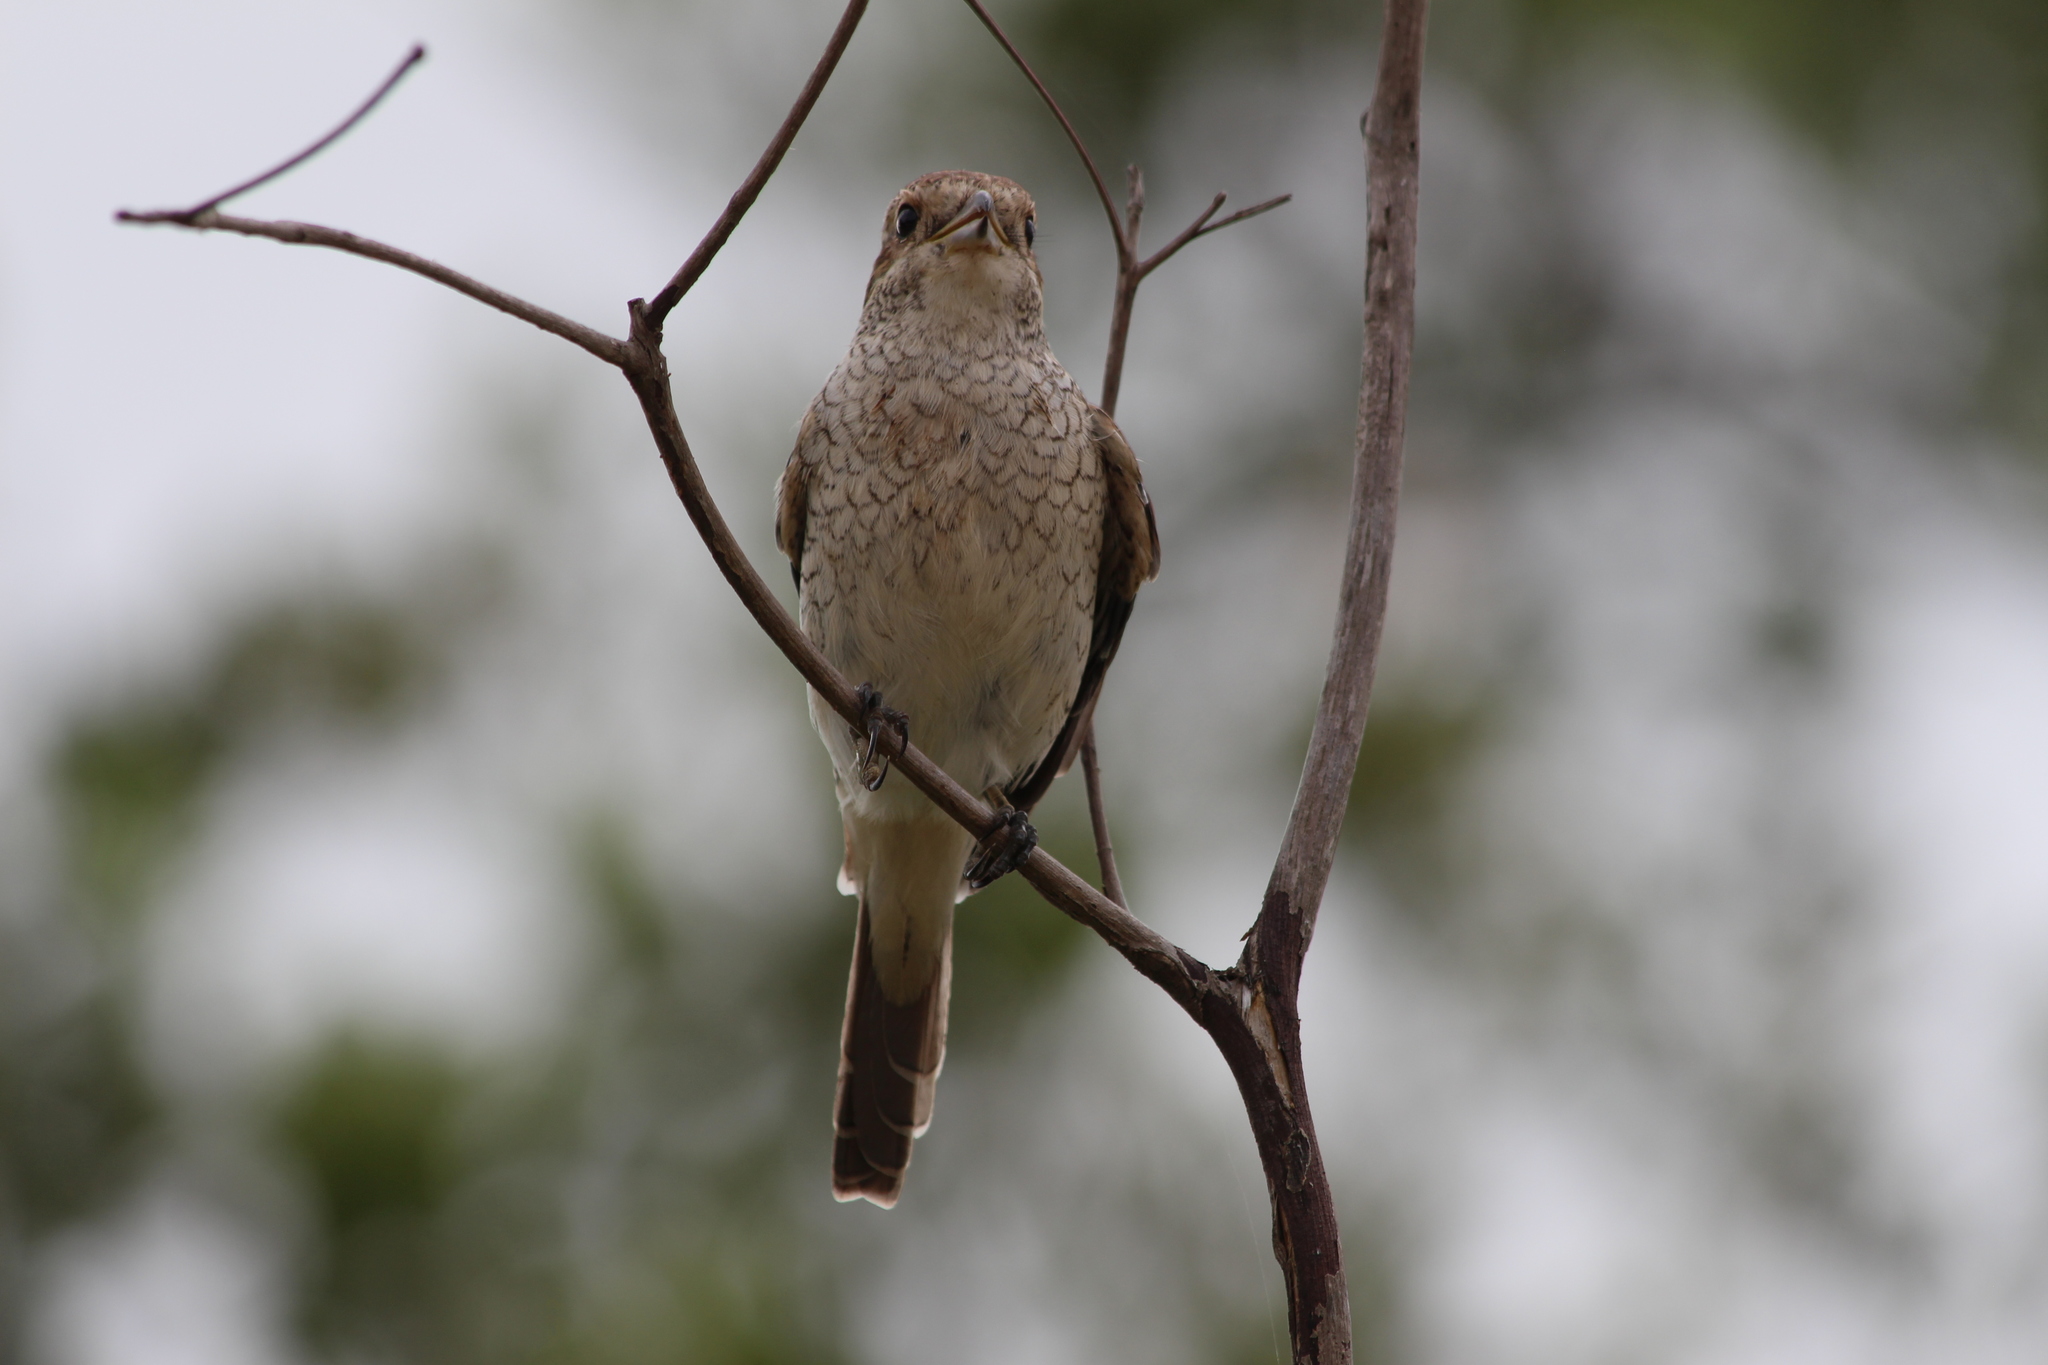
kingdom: Animalia
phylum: Chordata
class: Aves
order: Passeriformes
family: Laniidae
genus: Lanius
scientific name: Lanius collurio
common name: Red-backed shrike
